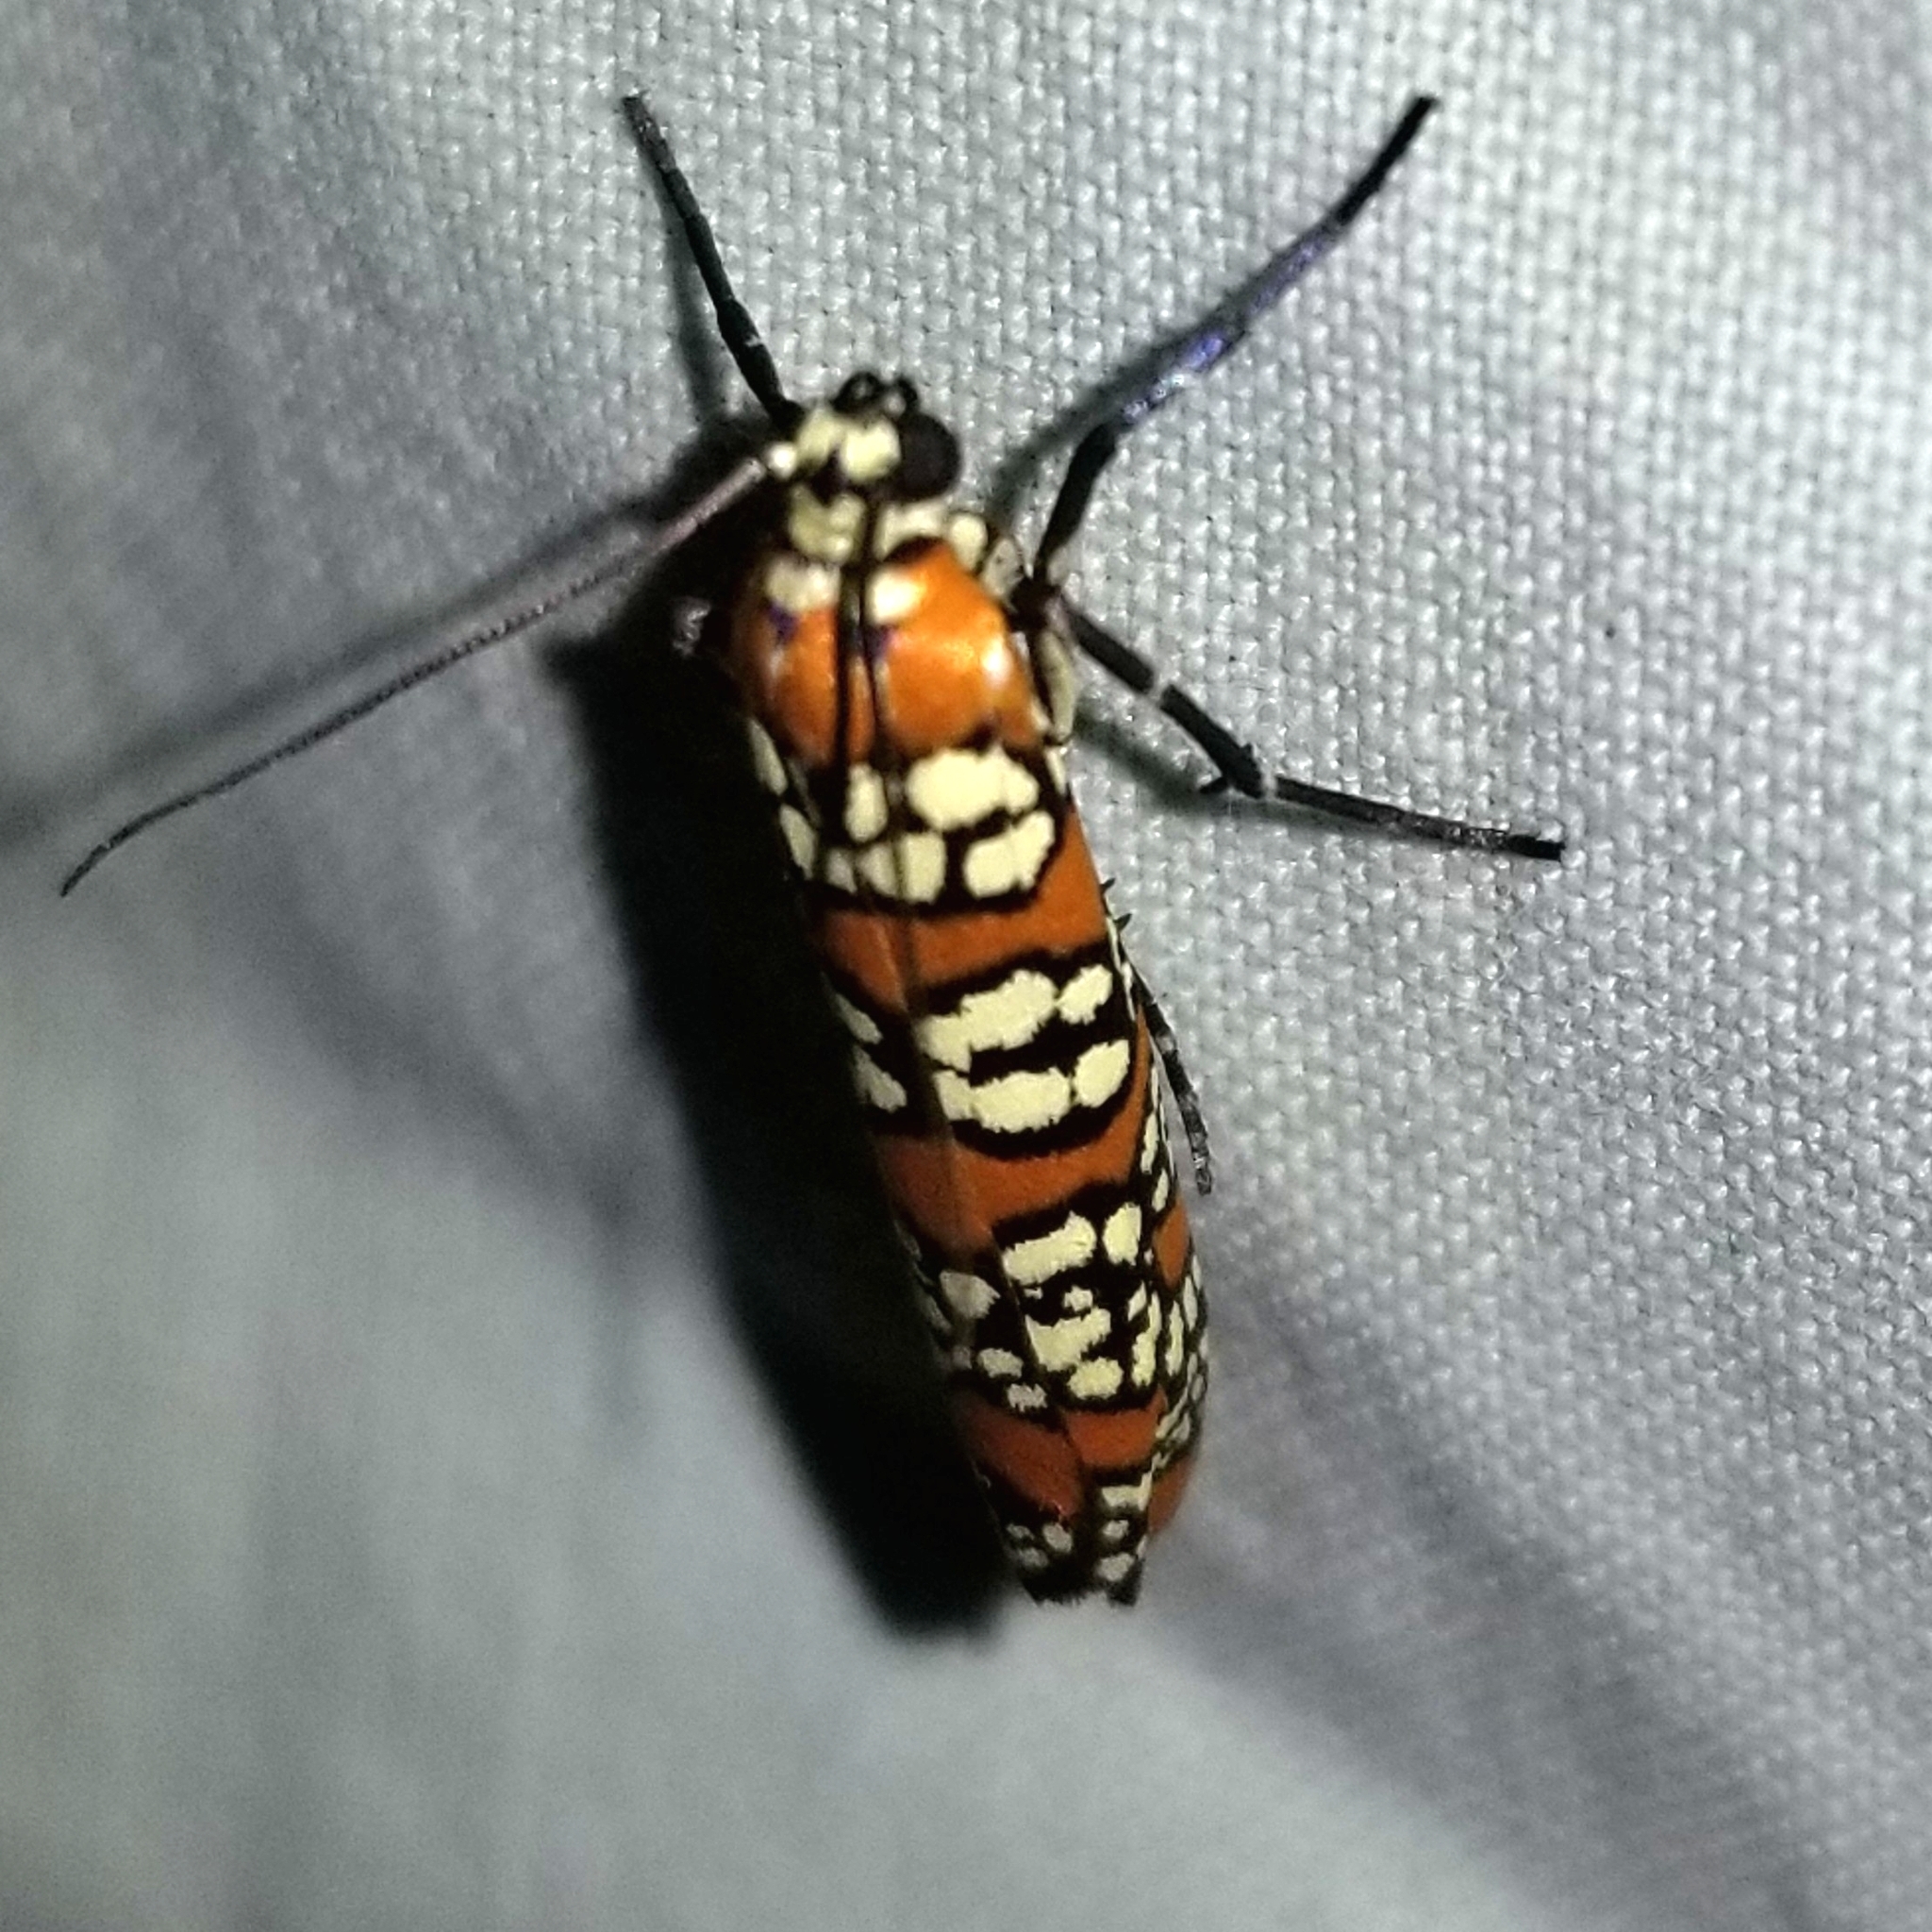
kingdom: Animalia
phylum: Arthropoda
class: Insecta
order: Lepidoptera
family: Attevidae
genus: Atteva
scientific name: Atteva punctella
